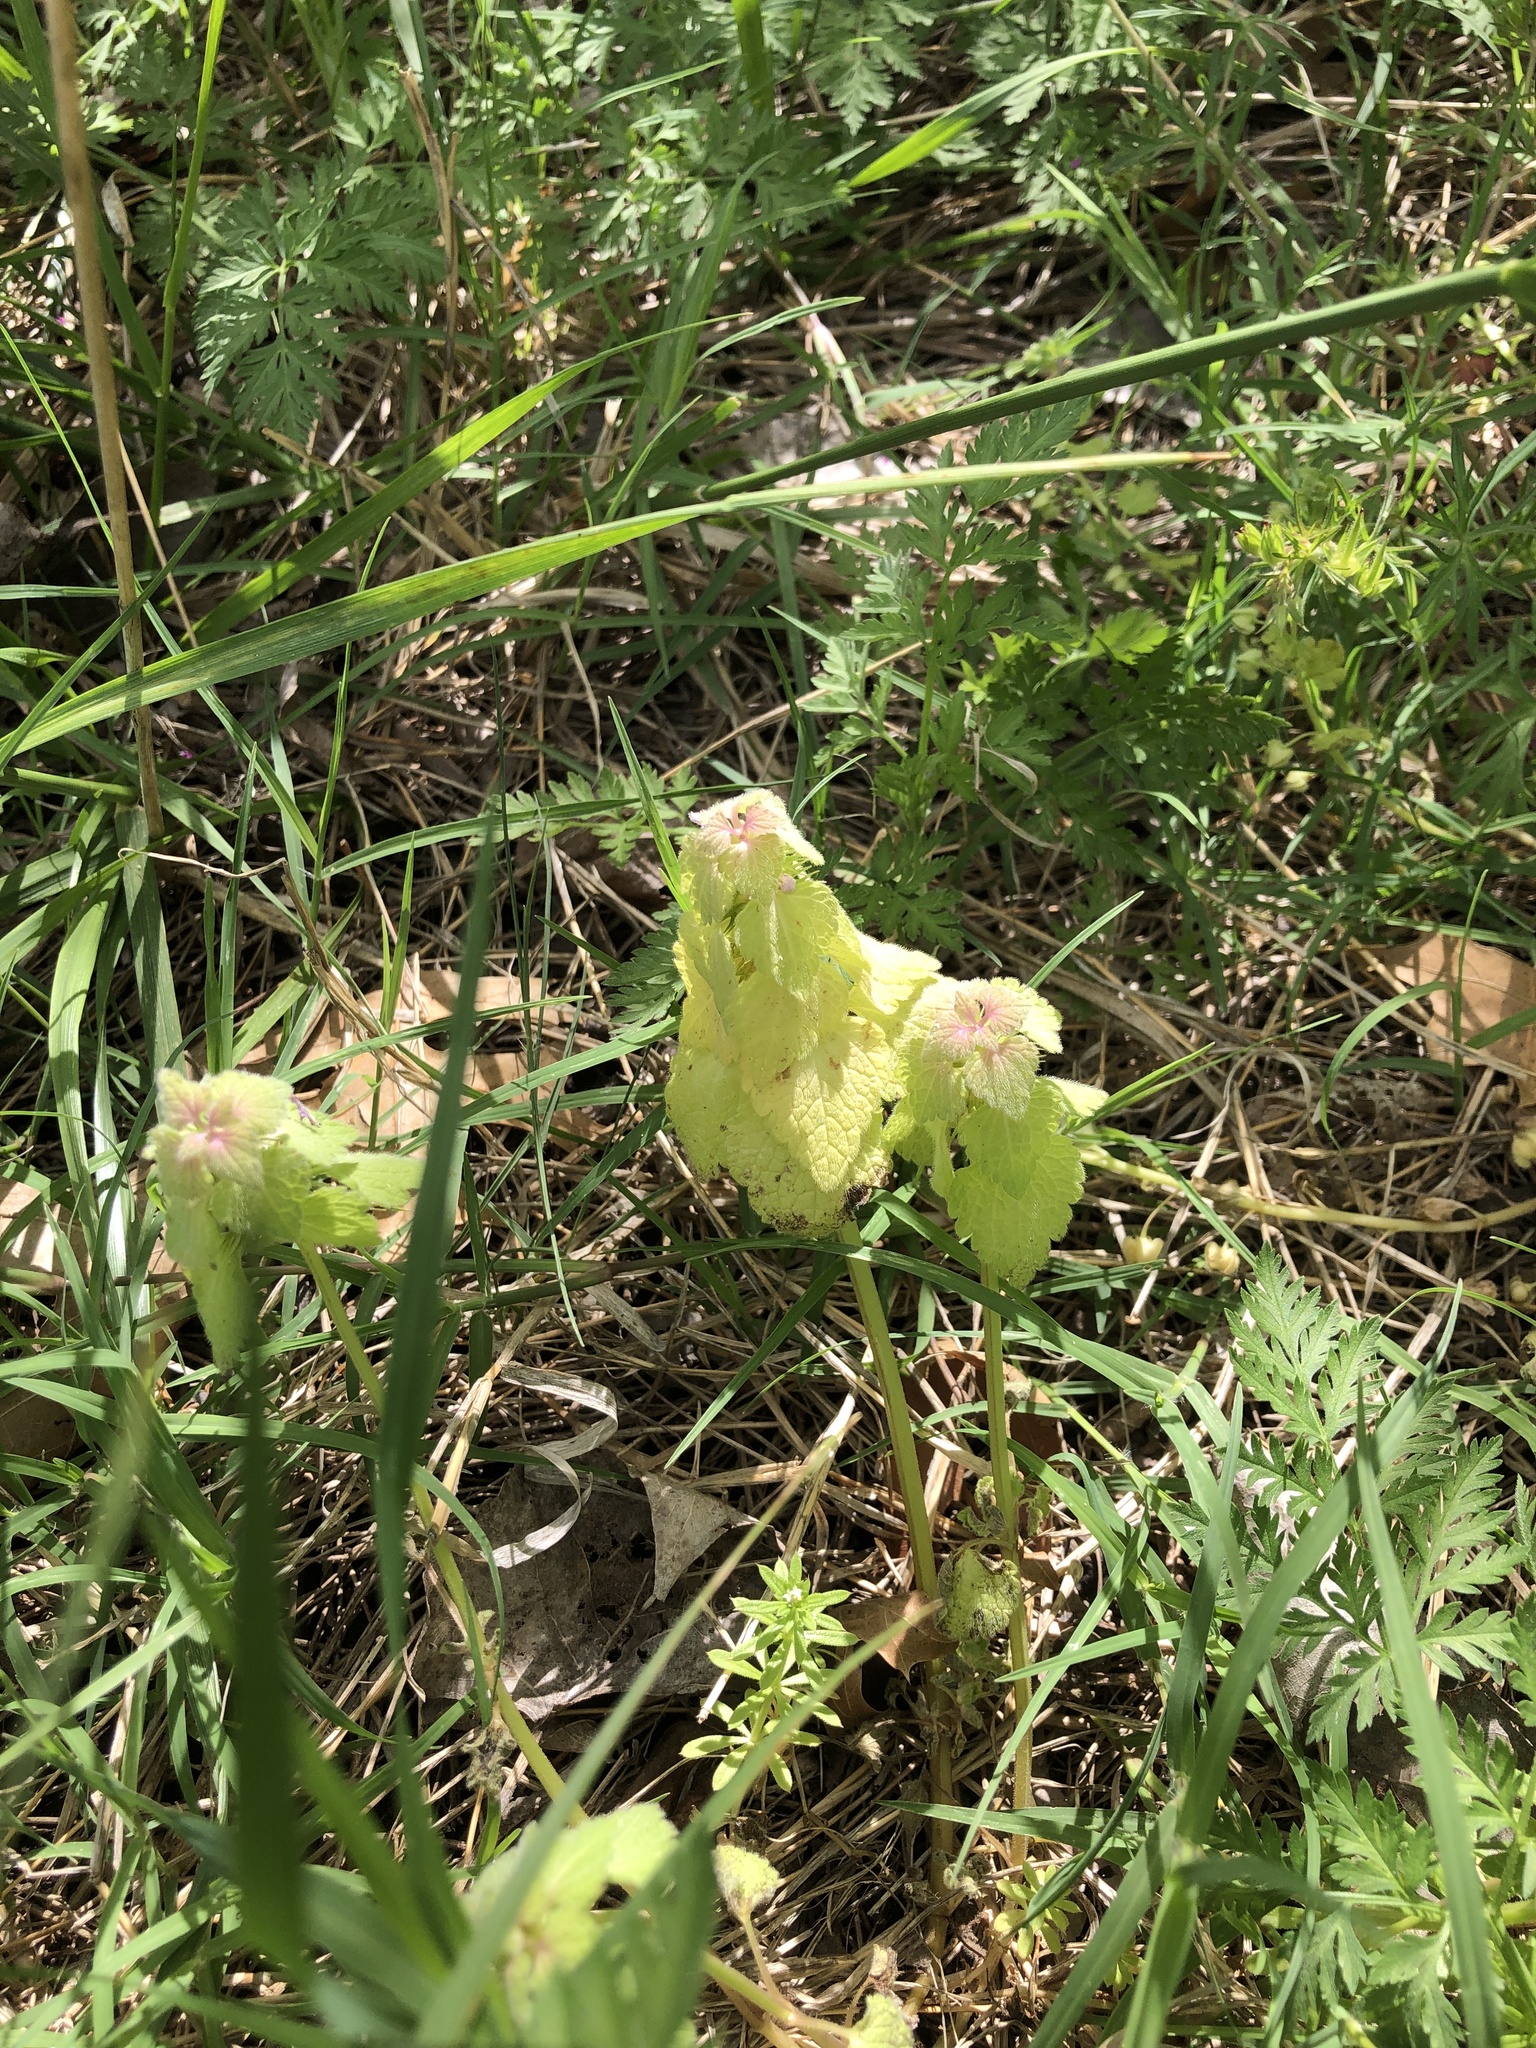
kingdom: Plantae
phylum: Tracheophyta
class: Magnoliopsida
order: Lamiales
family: Lamiaceae
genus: Lamium
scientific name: Lamium purpureum
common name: Red dead-nettle
